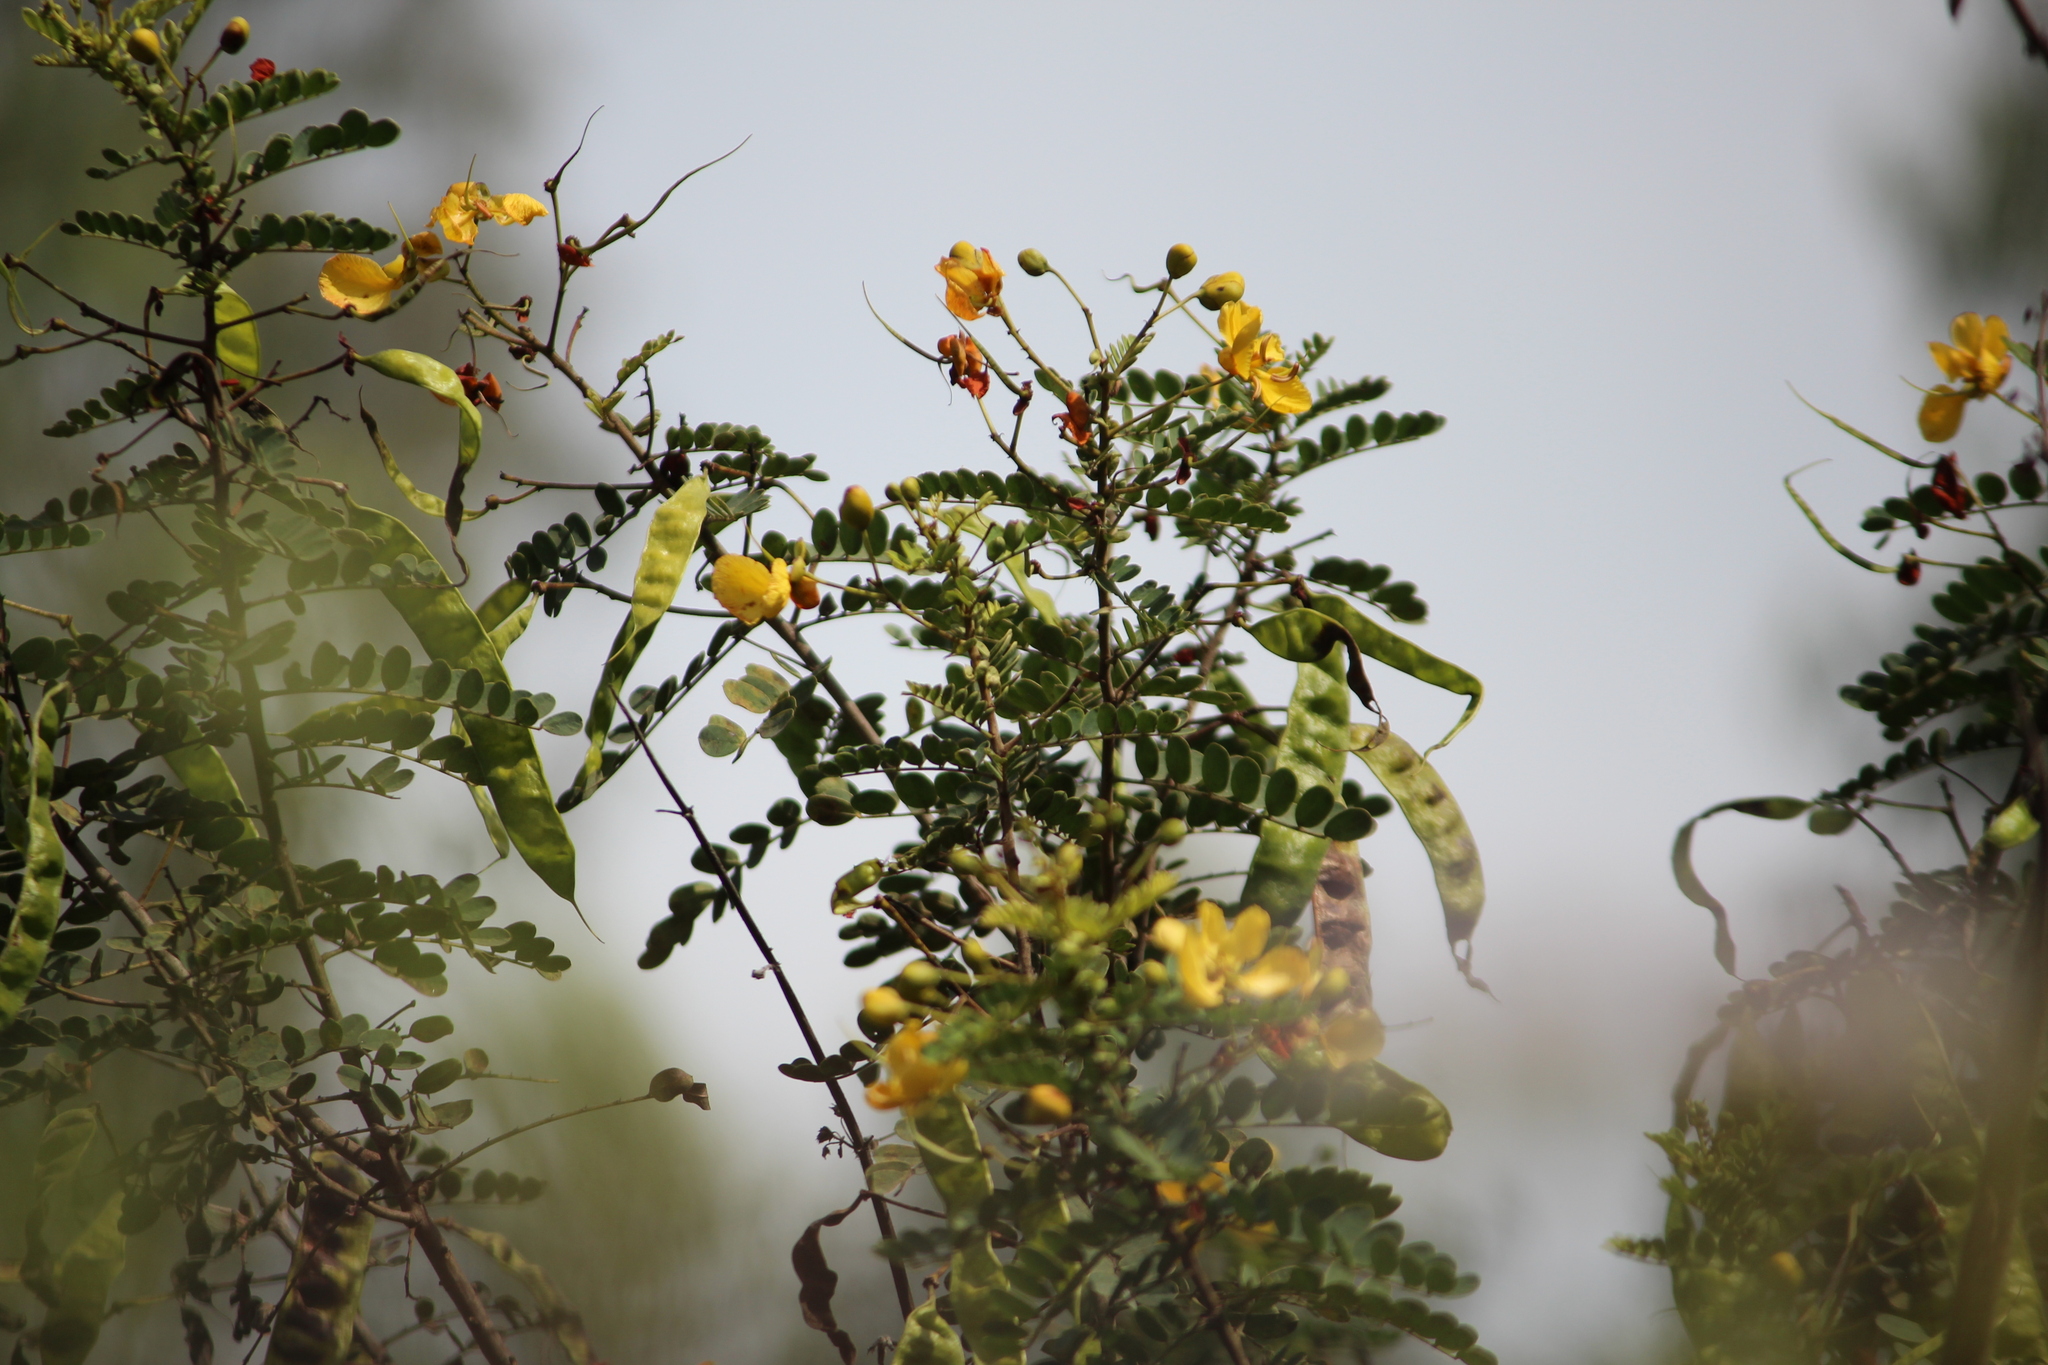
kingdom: Plantae
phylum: Tracheophyta
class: Magnoliopsida
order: Fabales
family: Fabaceae
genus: Senna
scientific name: Senna auriculata
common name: Tanner's cassia
